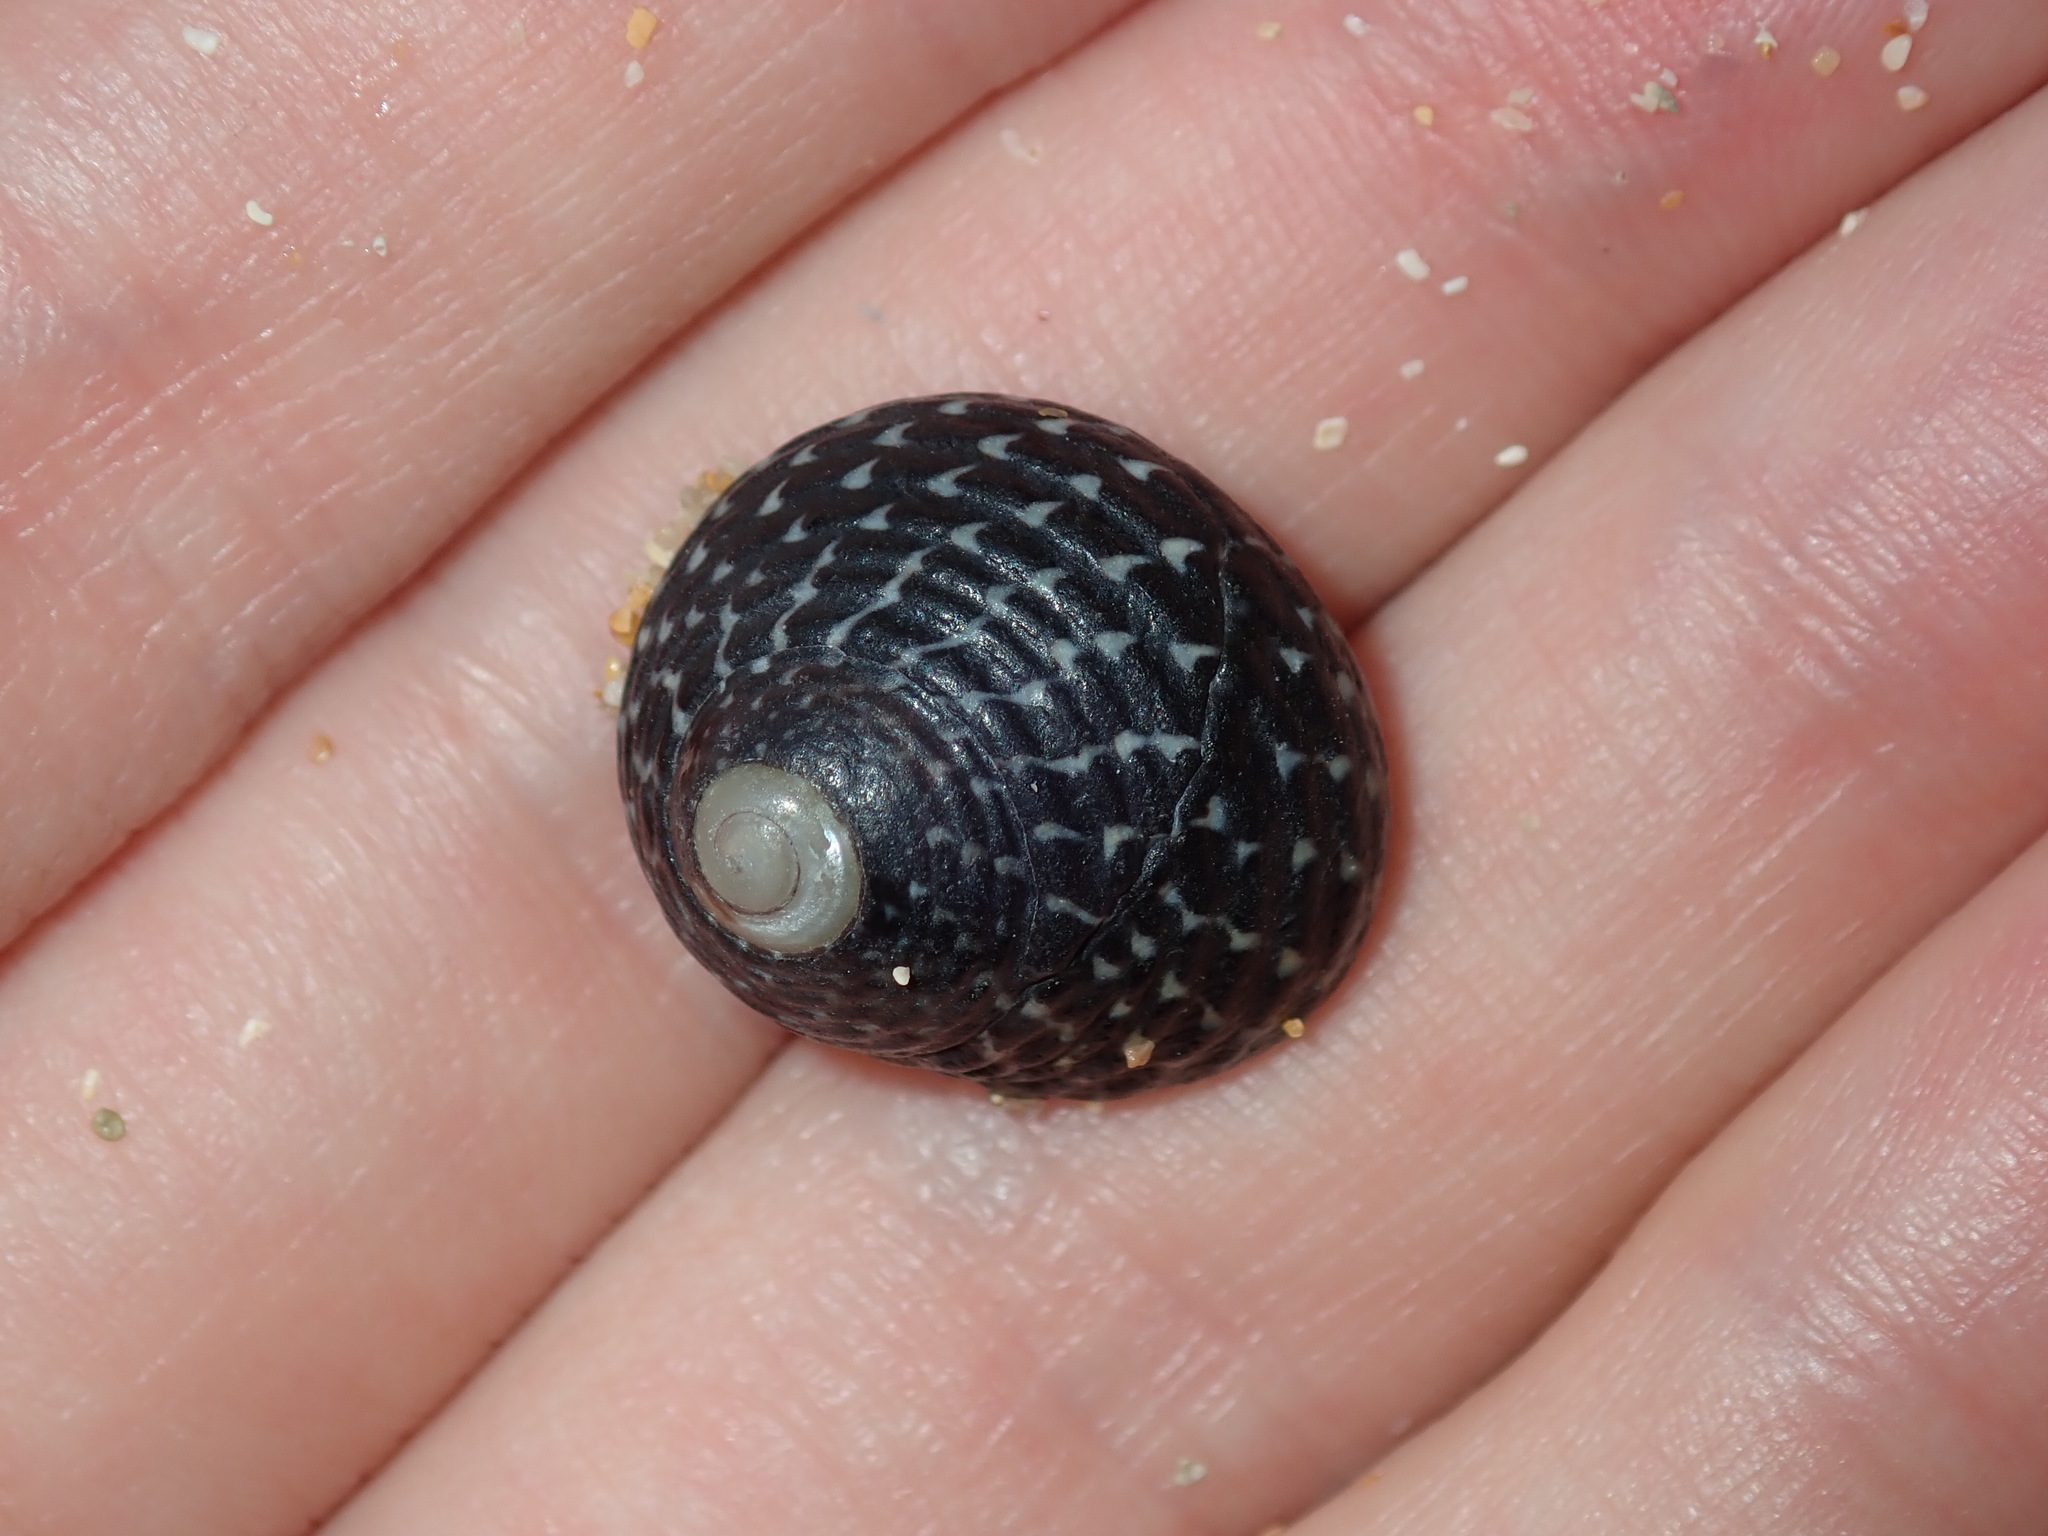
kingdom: Animalia
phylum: Mollusca
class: Gastropoda
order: Trochida
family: Trochidae
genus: Diloma
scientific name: Diloma concameratum
